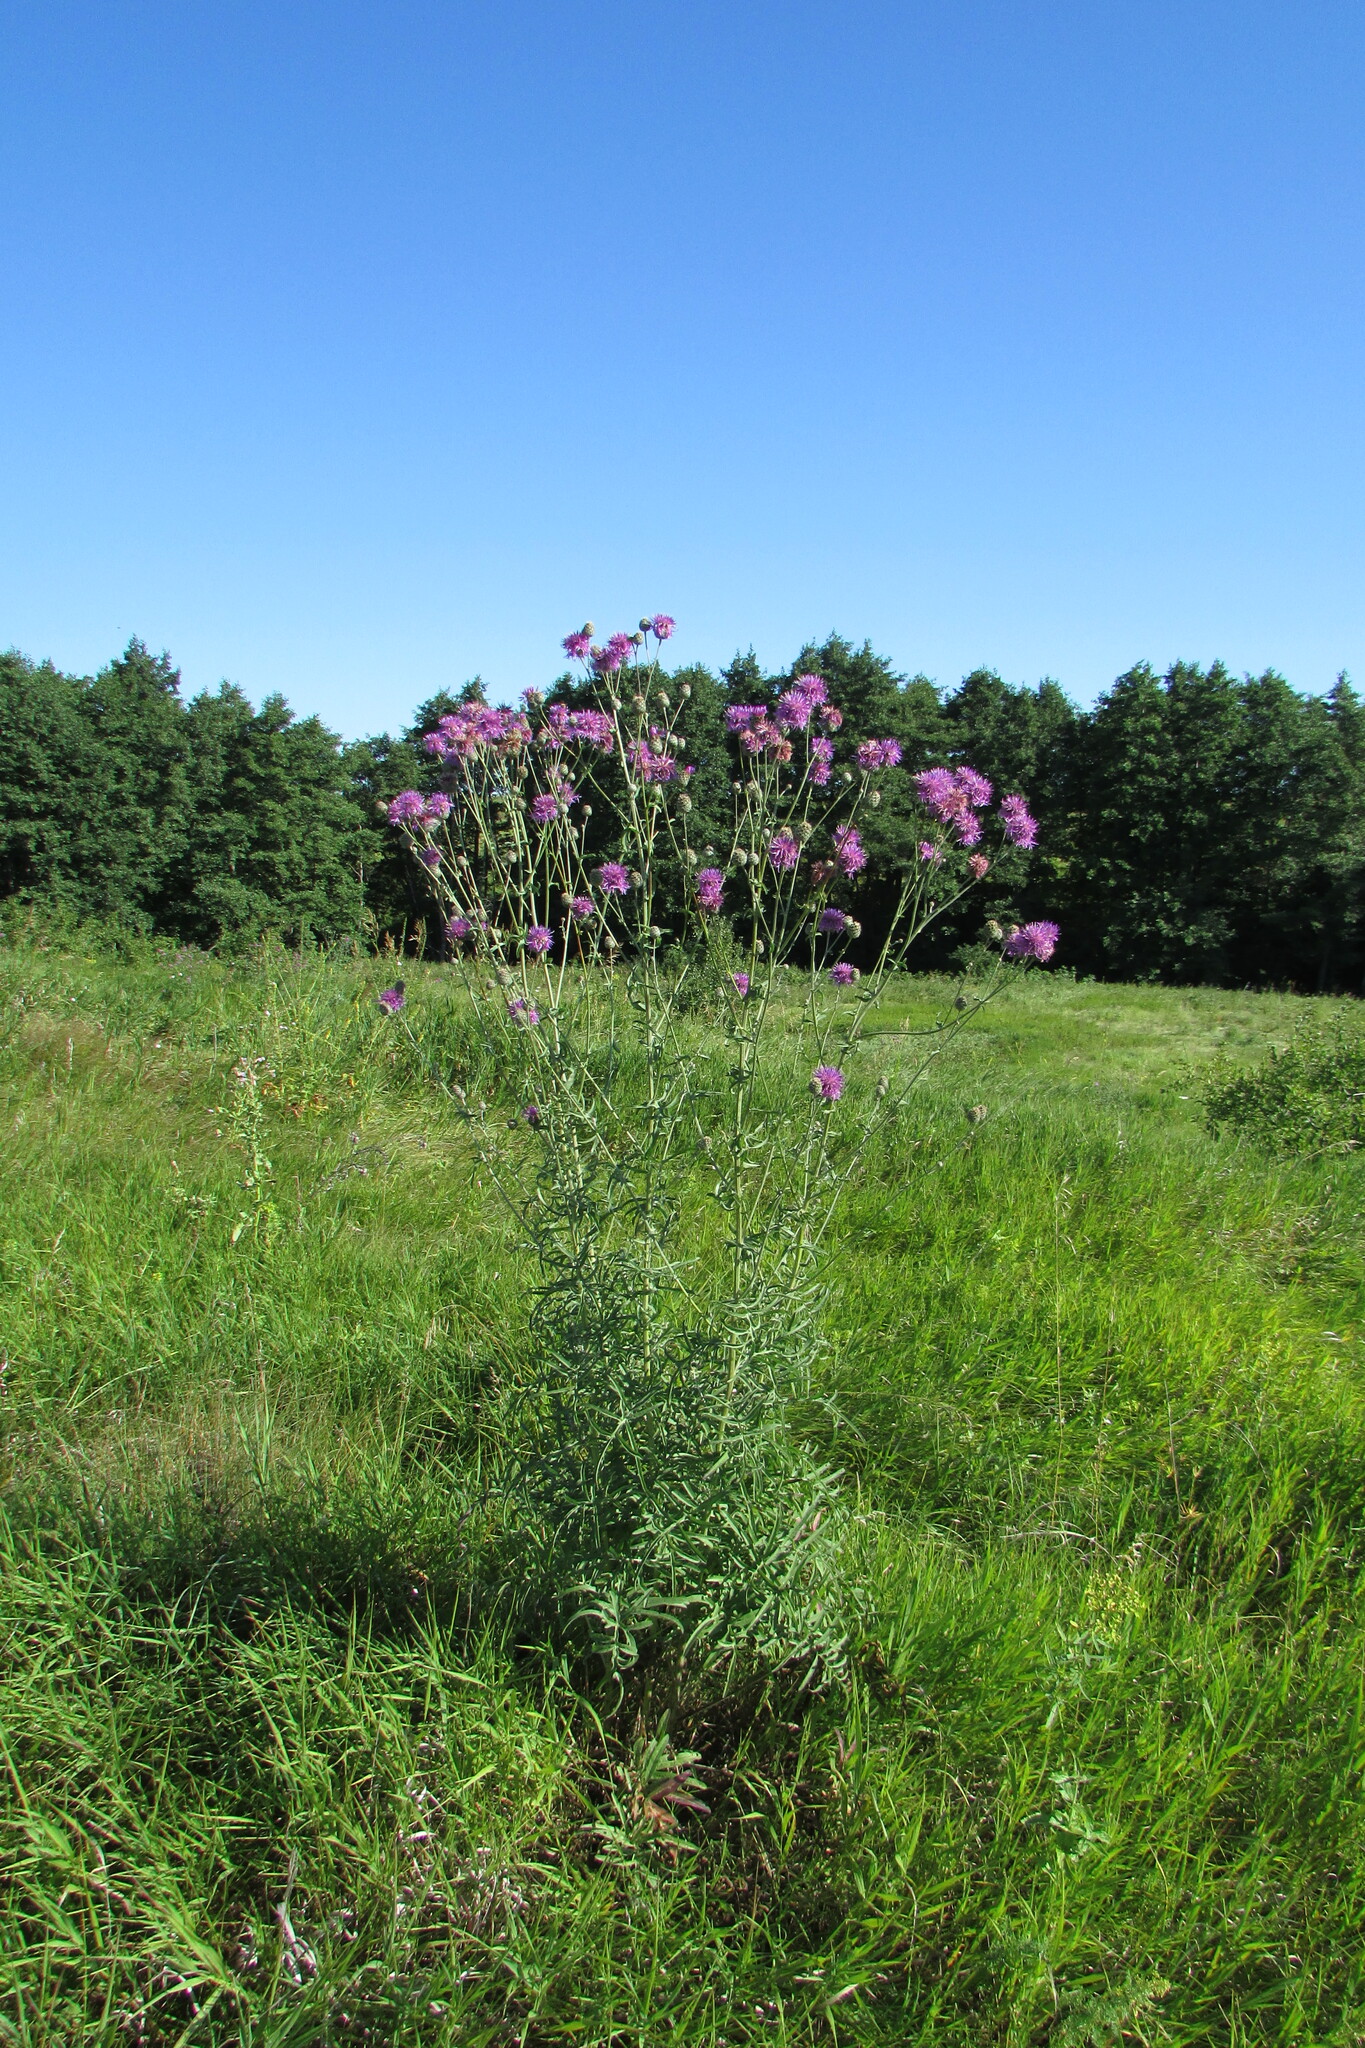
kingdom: Plantae
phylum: Tracheophyta
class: Magnoliopsida
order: Asterales
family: Asteraceae
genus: Centaurea
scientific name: Centaurea scabiosa
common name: Greater knapweed
